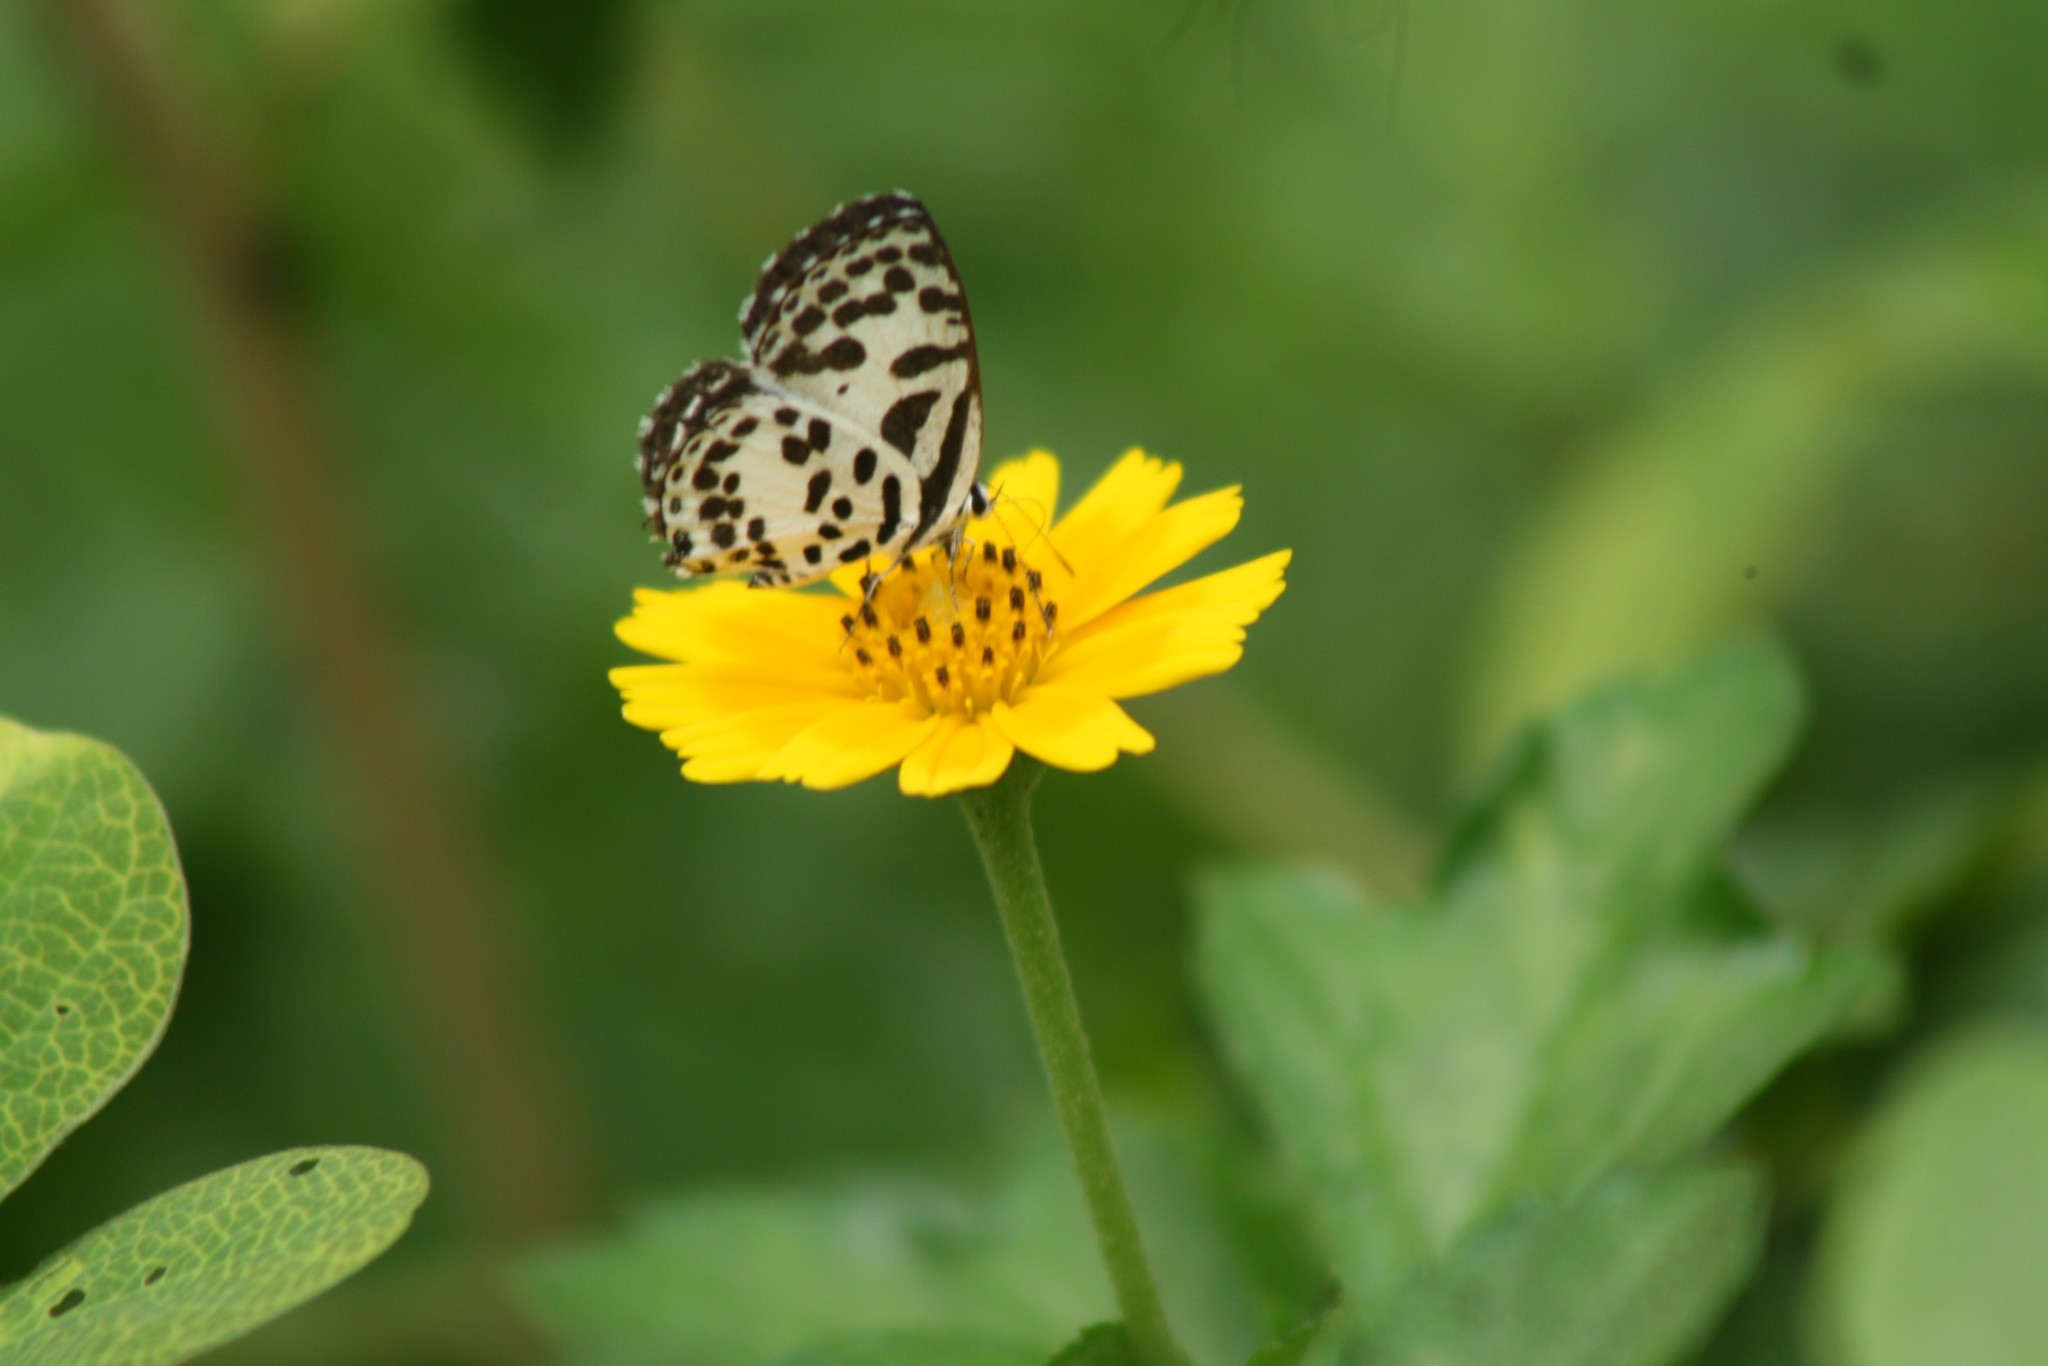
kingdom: Animalia
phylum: Arthropoda
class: Insecta
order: Lepidoptera
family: Lycaenidae
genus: Castalius
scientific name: Castalius rosimon
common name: Common pierrot
